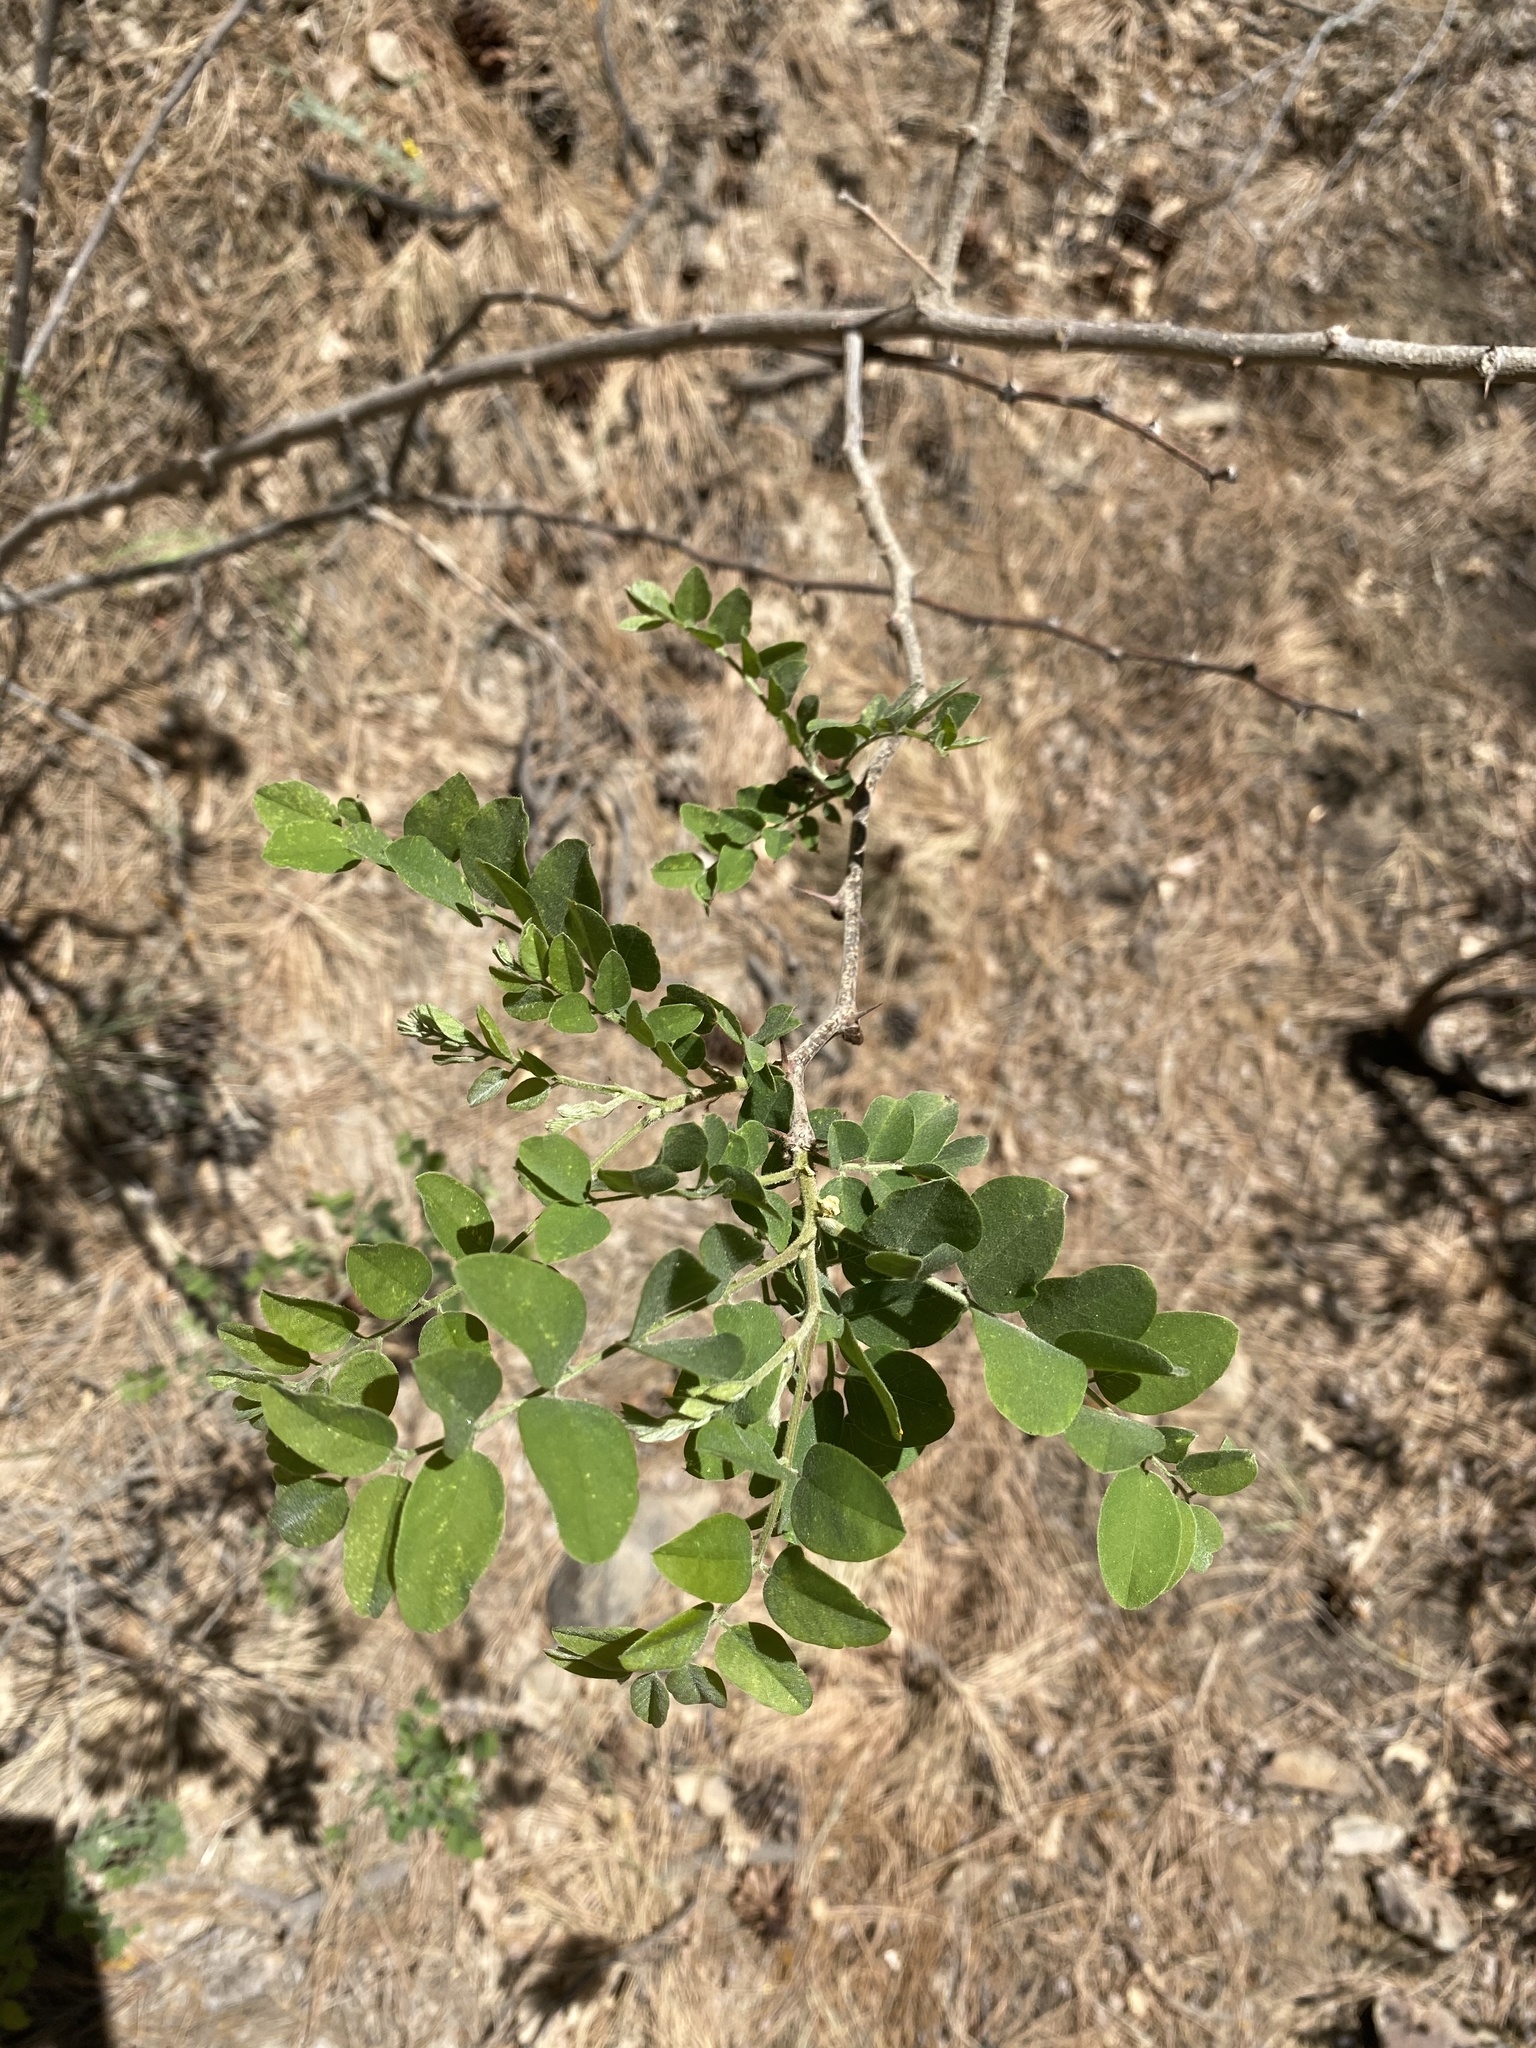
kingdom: Animalia
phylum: Arthropoda
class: Insecta
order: Hemiptera
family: Cicadellidae
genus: Oncometopia
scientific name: Oncometopia alpha
